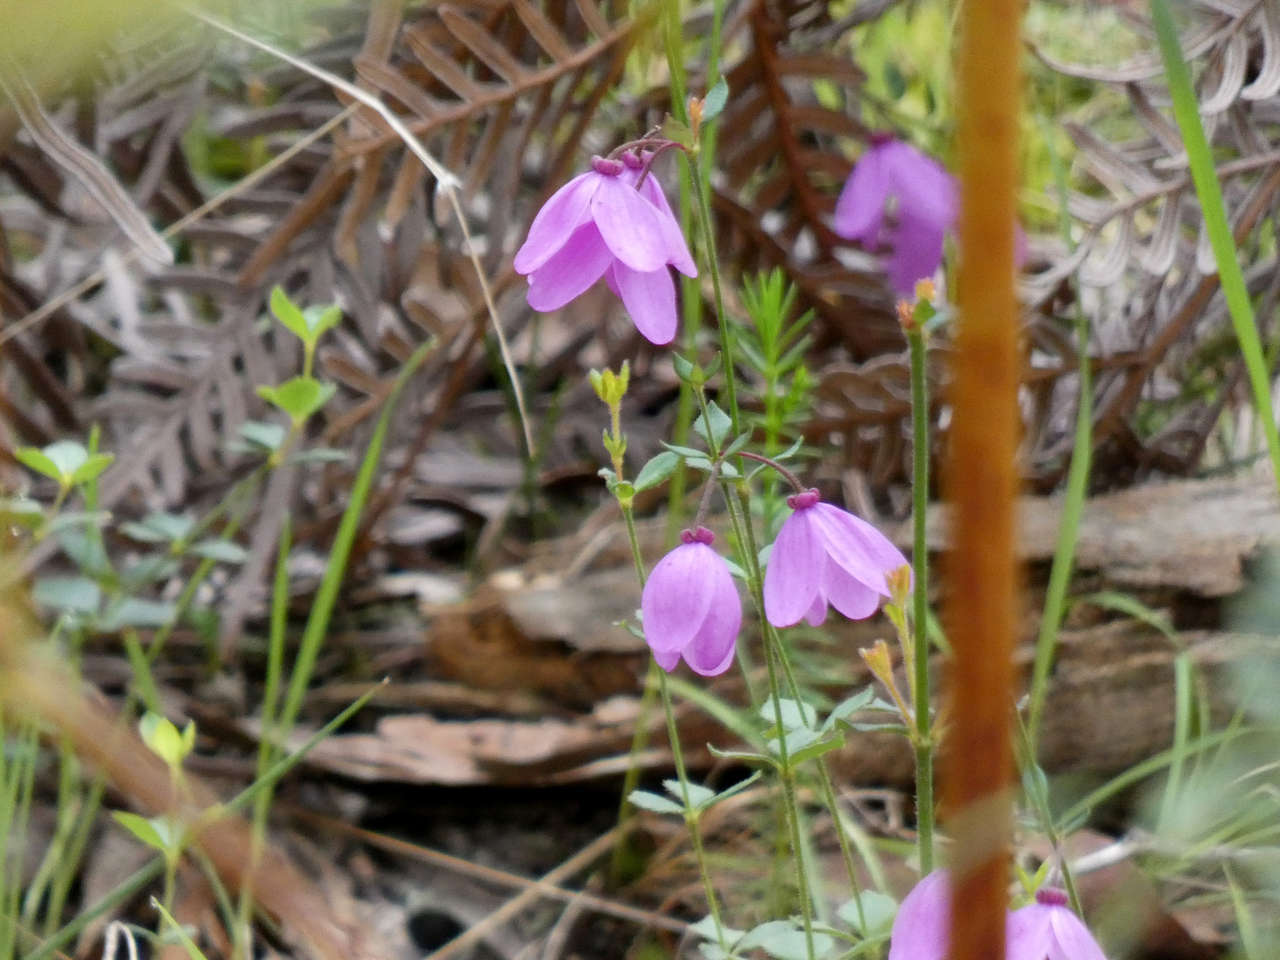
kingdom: Plantae
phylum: Tracheophyta
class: Magnoliopsida
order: Oxalidales
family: Elaeocarpaceae
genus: Tetratheca
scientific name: Tetratheca ciliata
